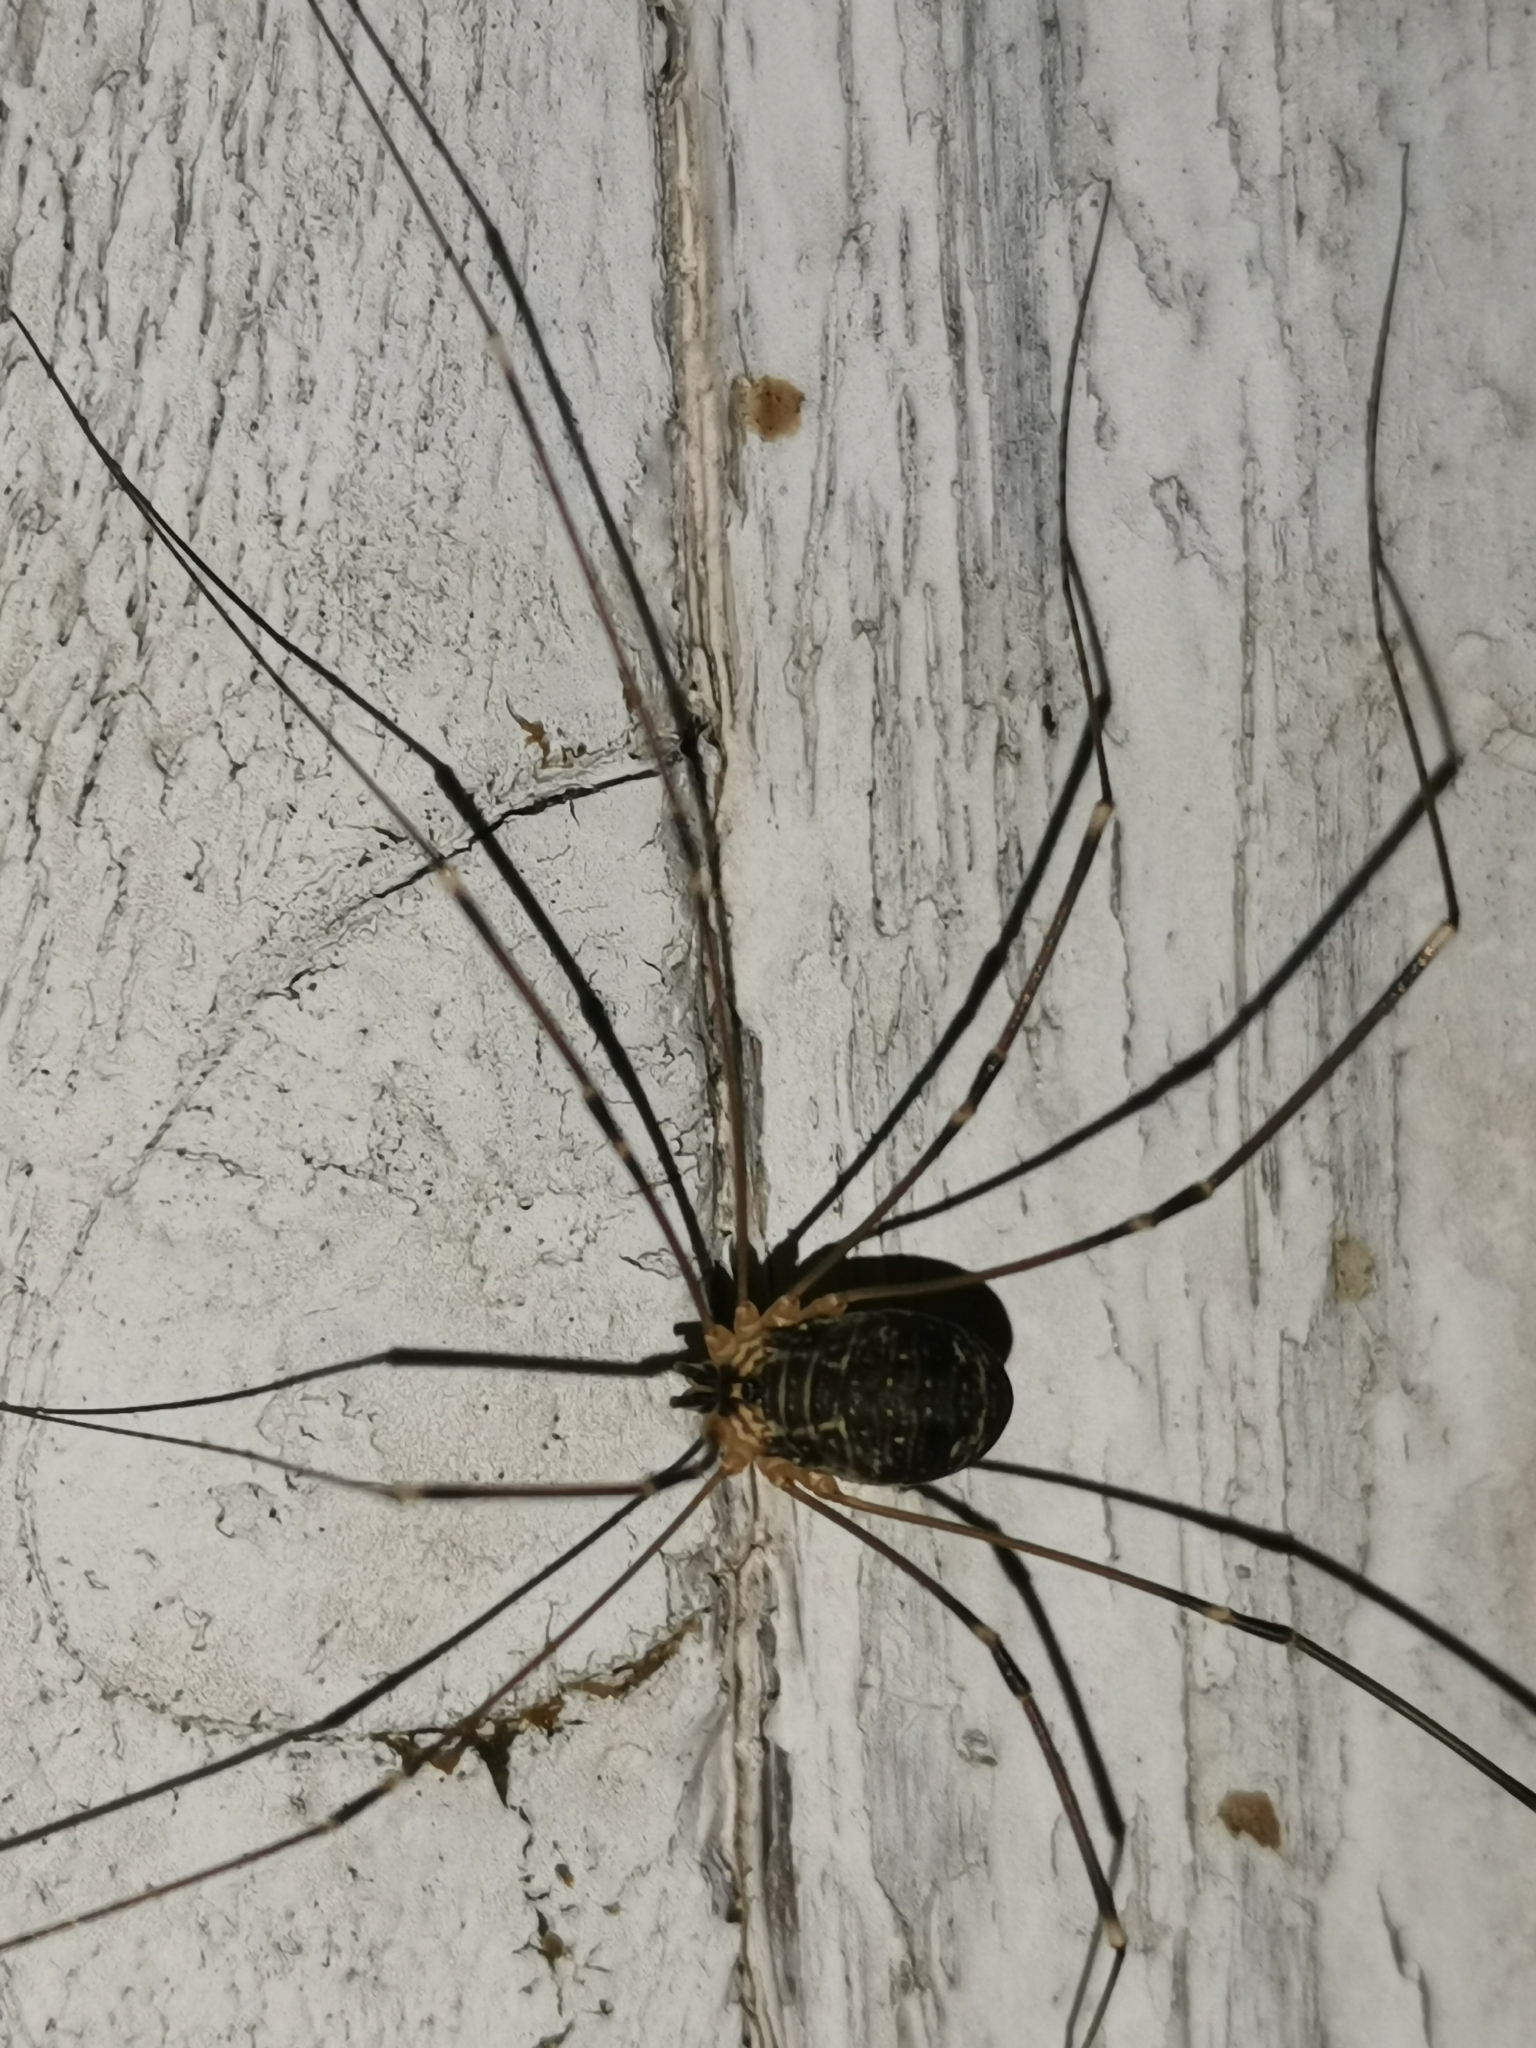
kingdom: Animalia
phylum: Arthropoda
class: Arachnida
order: Opiliones
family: Sclerosomatidae
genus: Leiobunum
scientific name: Leiobunum gracile
